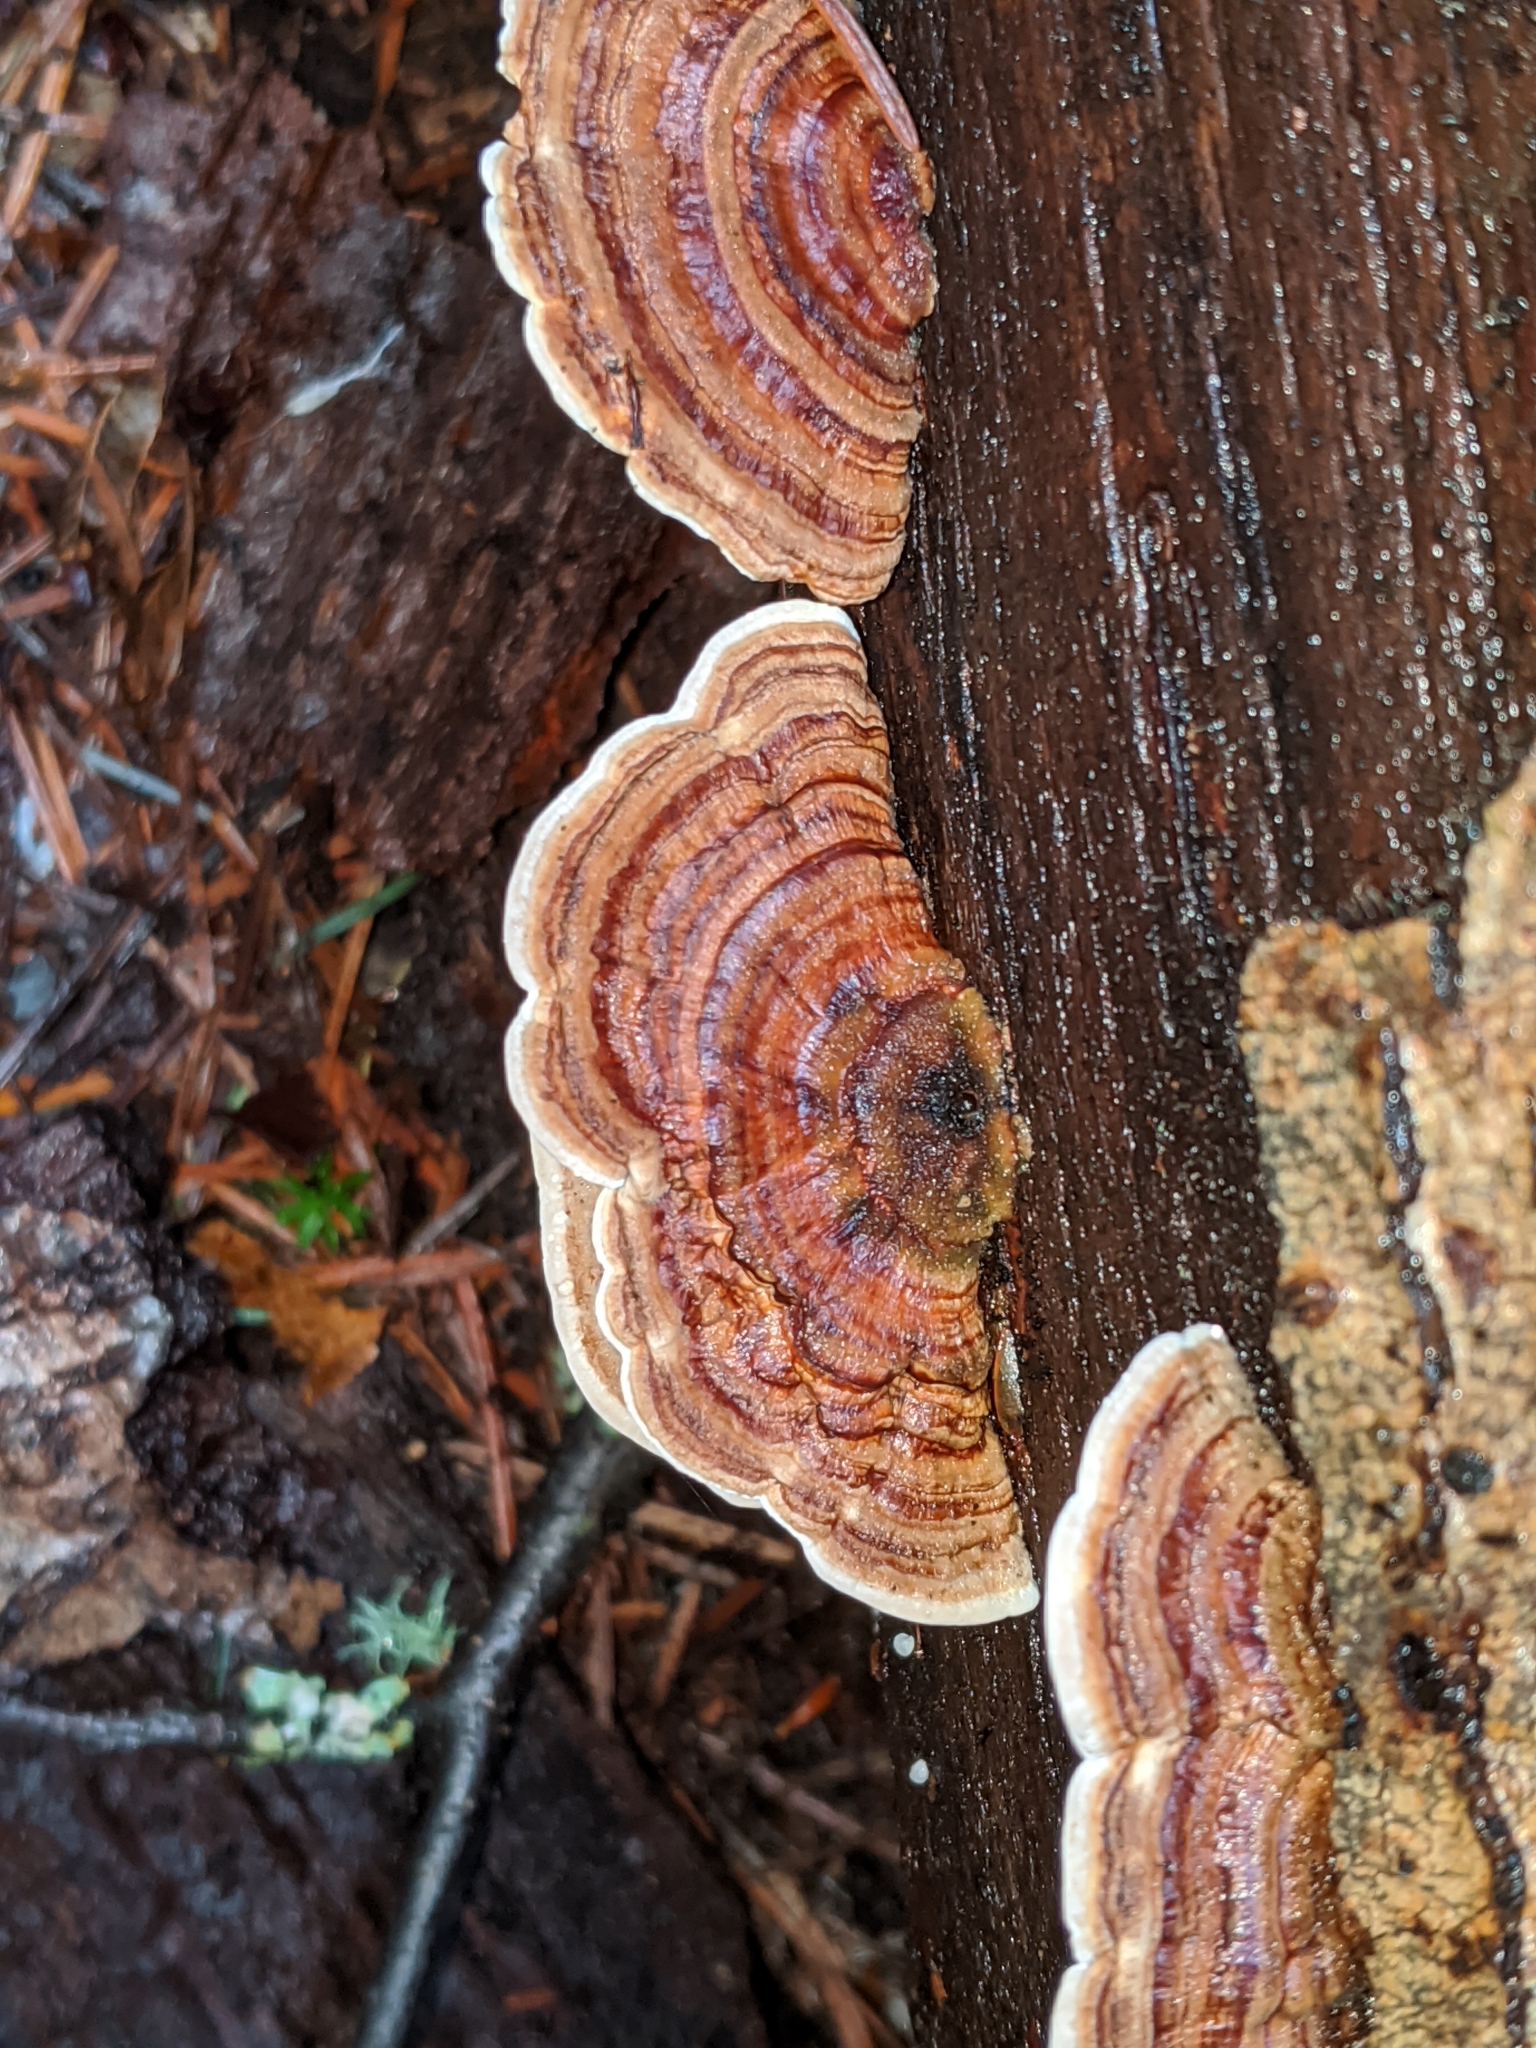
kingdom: Fungi
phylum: Basidiomycota
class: Agaricomycetes
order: Polyporales
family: Polyporaceae
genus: Trametes
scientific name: Trametes versicolor
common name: Turkeytail
